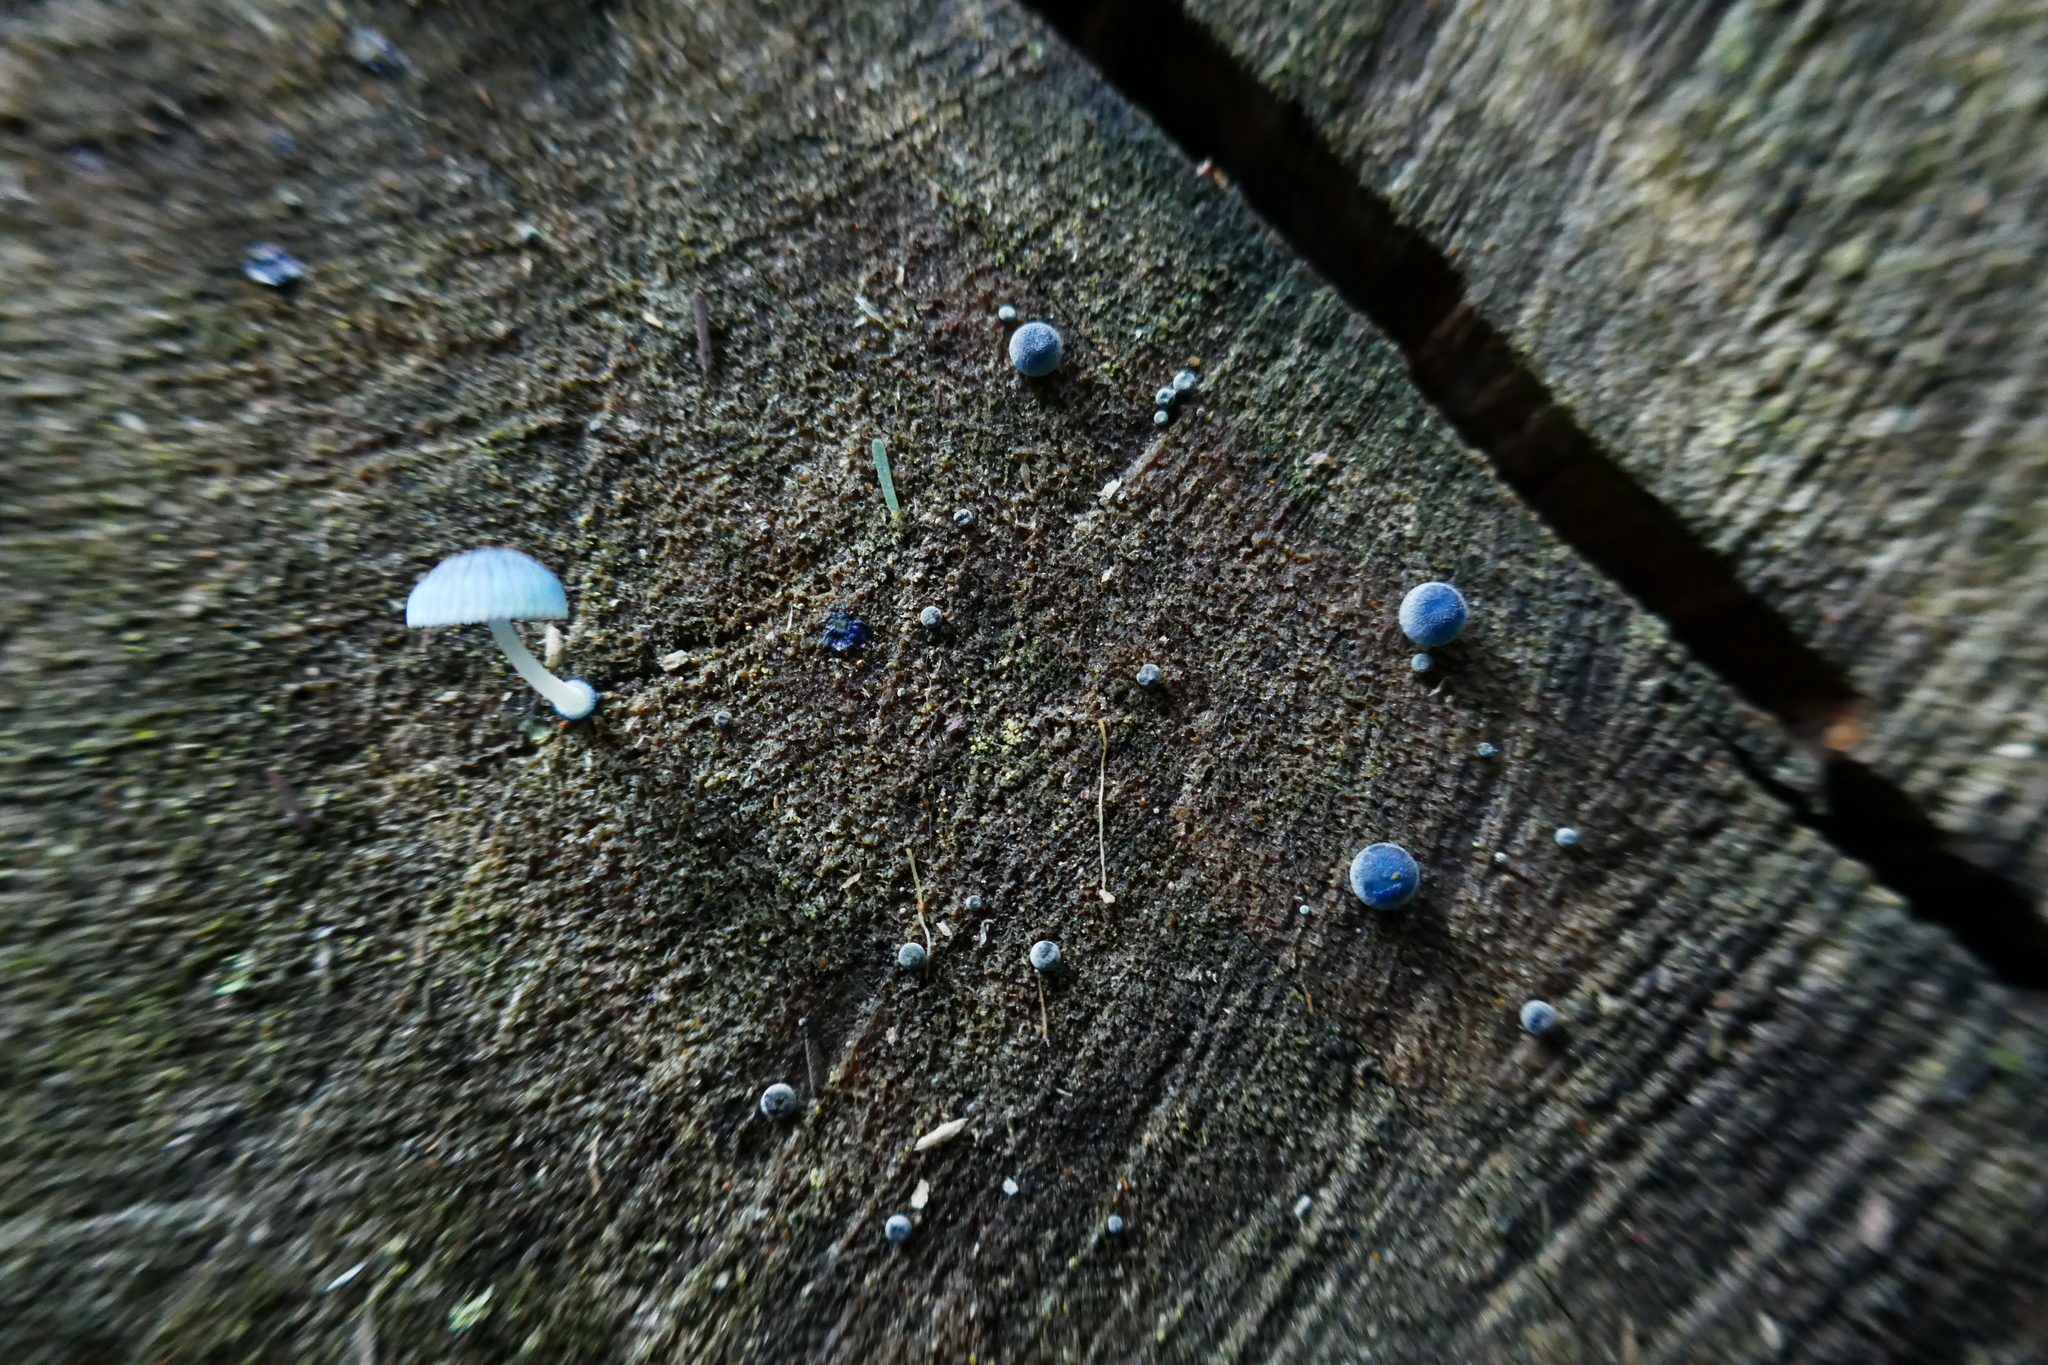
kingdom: Fungi
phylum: Basidiomycota
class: Agaricomycetes
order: Agaricales
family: Mycenaceae
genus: Mycena
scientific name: Mycena interrupta
